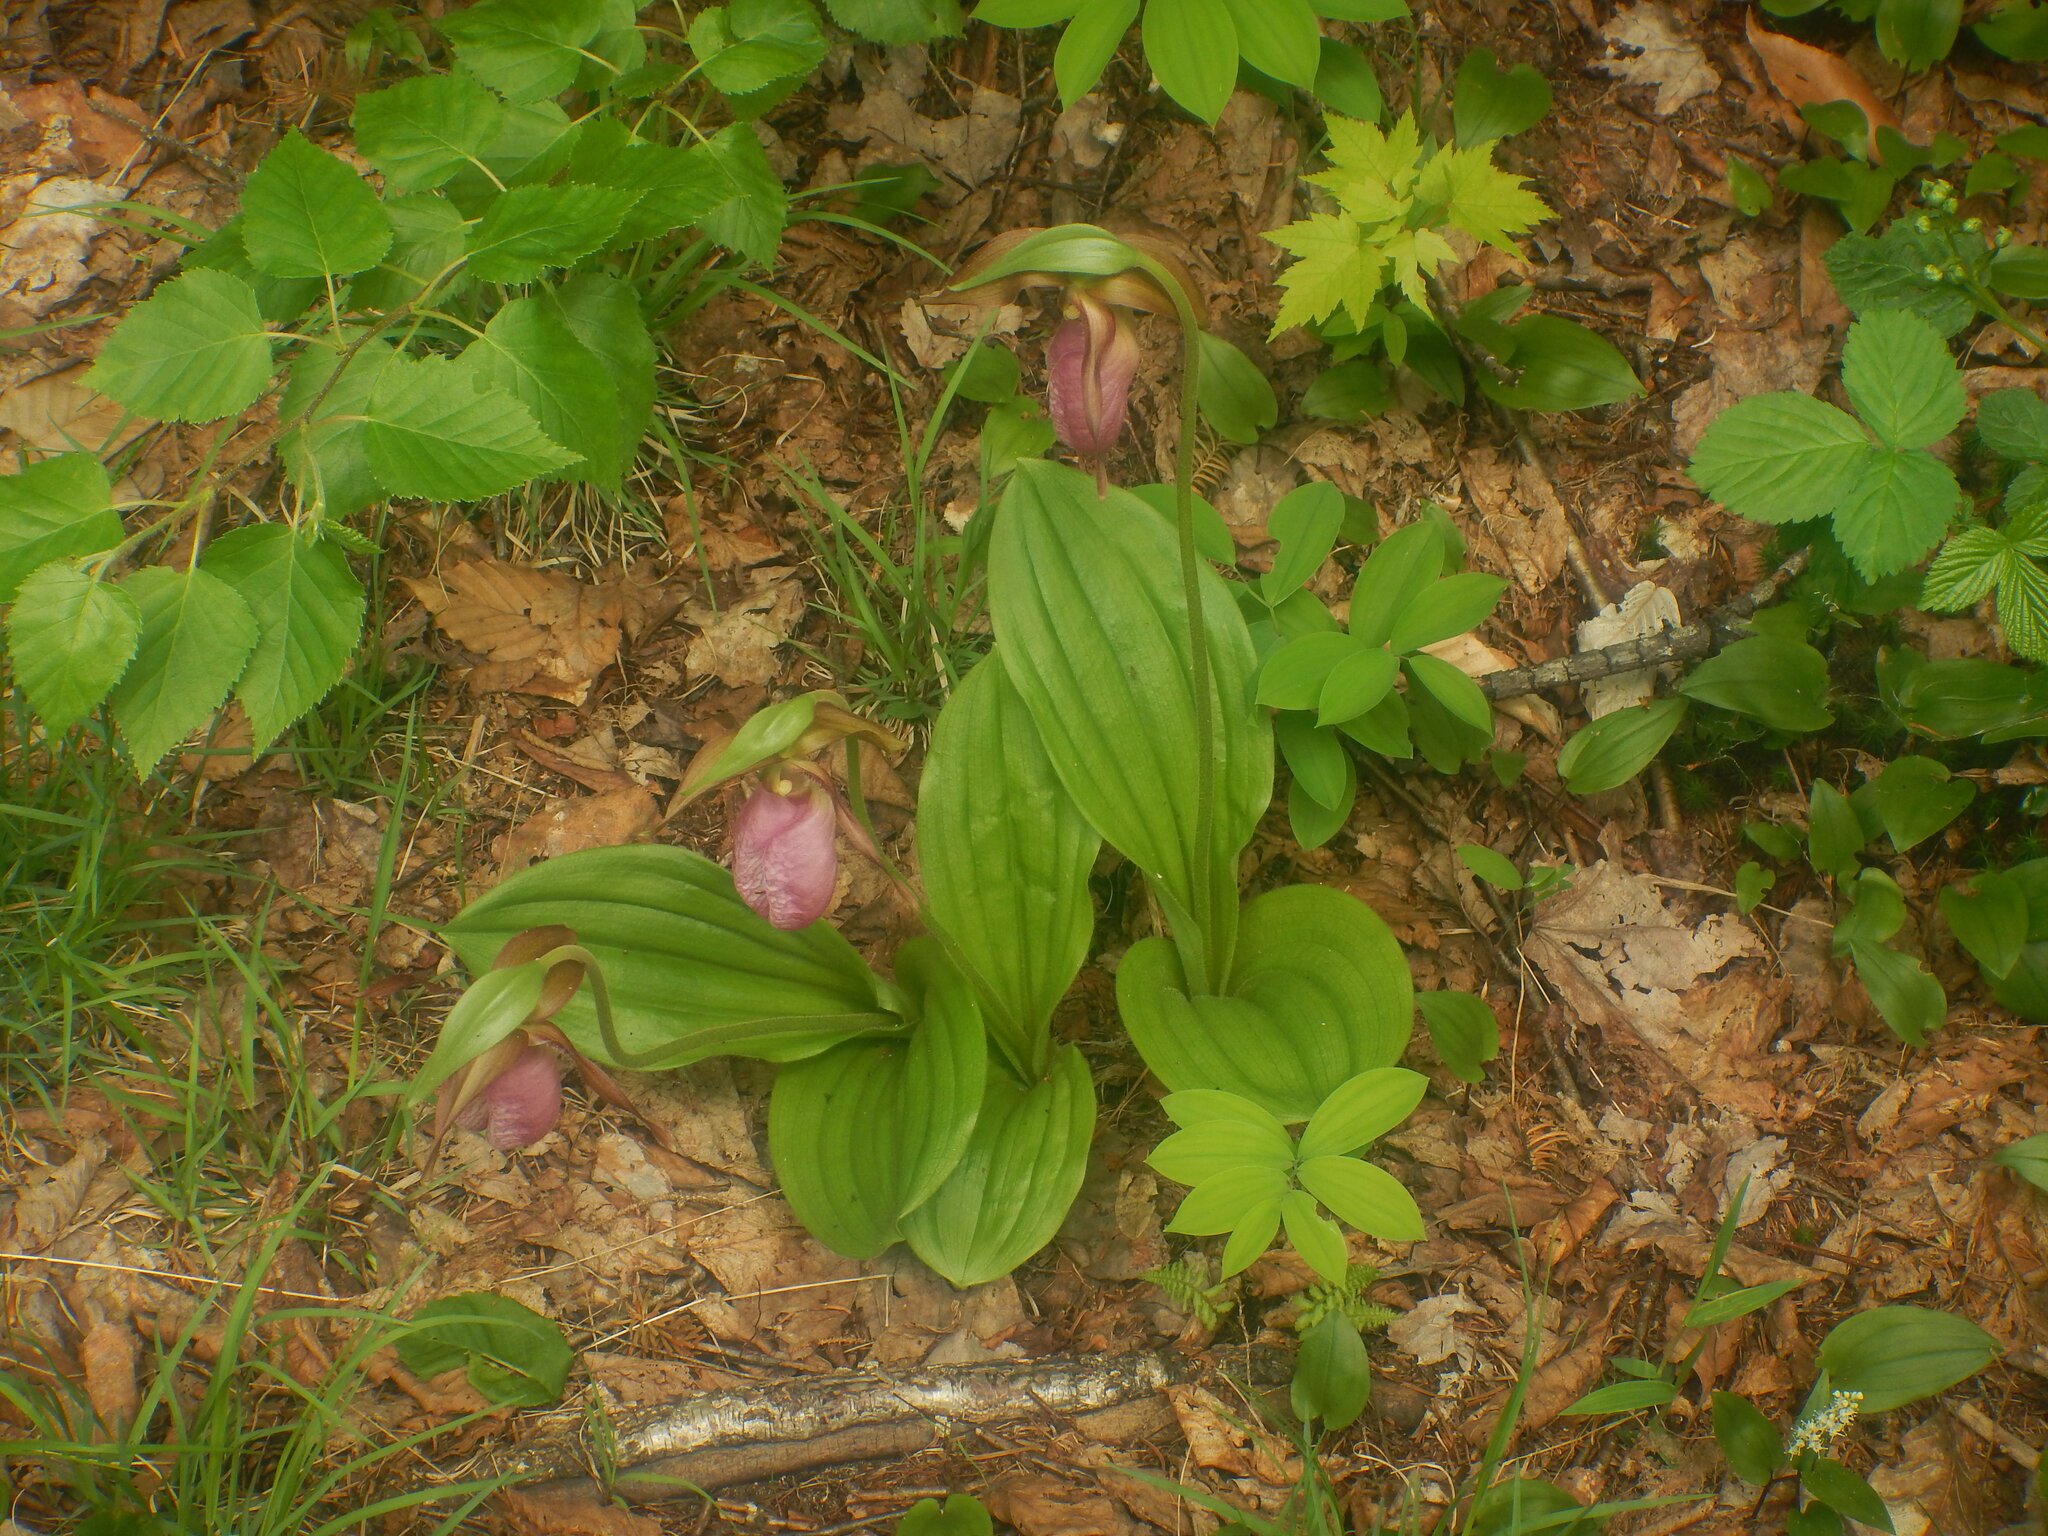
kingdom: Plantae
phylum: Tracheophyta
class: Liliopsida
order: Asparagales
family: Orchidaceae
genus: Cypripedium
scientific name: Cypripedium acaule
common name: Pink lady's-slipper
